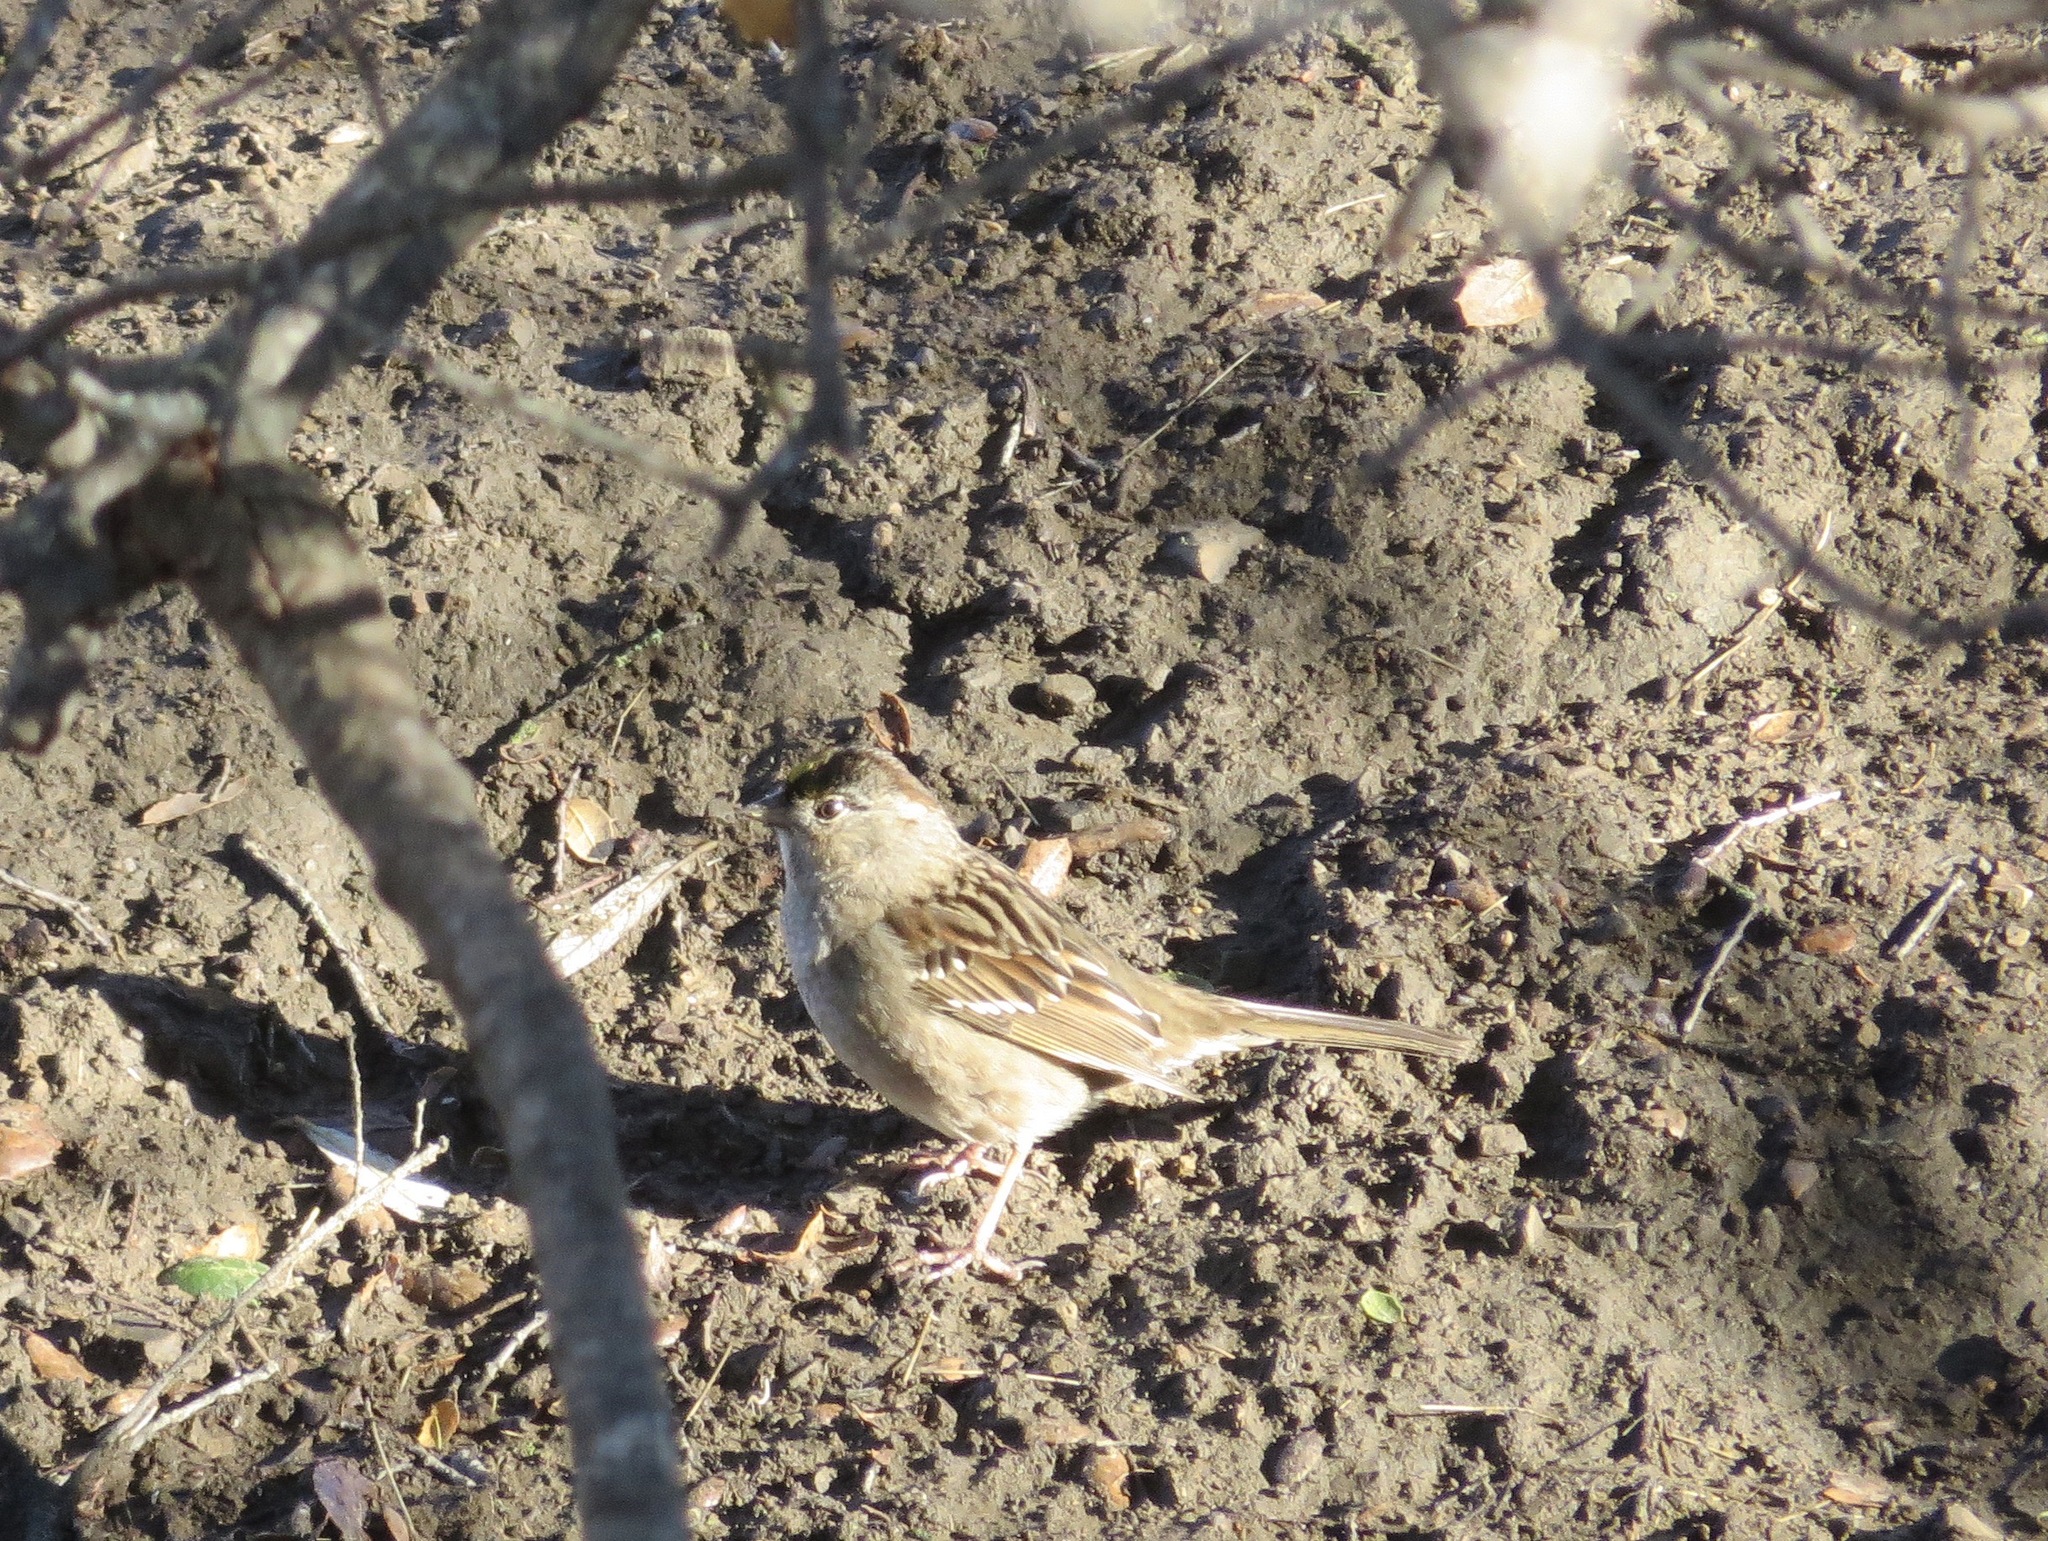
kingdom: Animalia
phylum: Chordata
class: Aves
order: Passeriformes
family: Passerellidae
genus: Zonotrichia
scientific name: Zonotrichia atricapilla
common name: Golden-crowned sparrow
